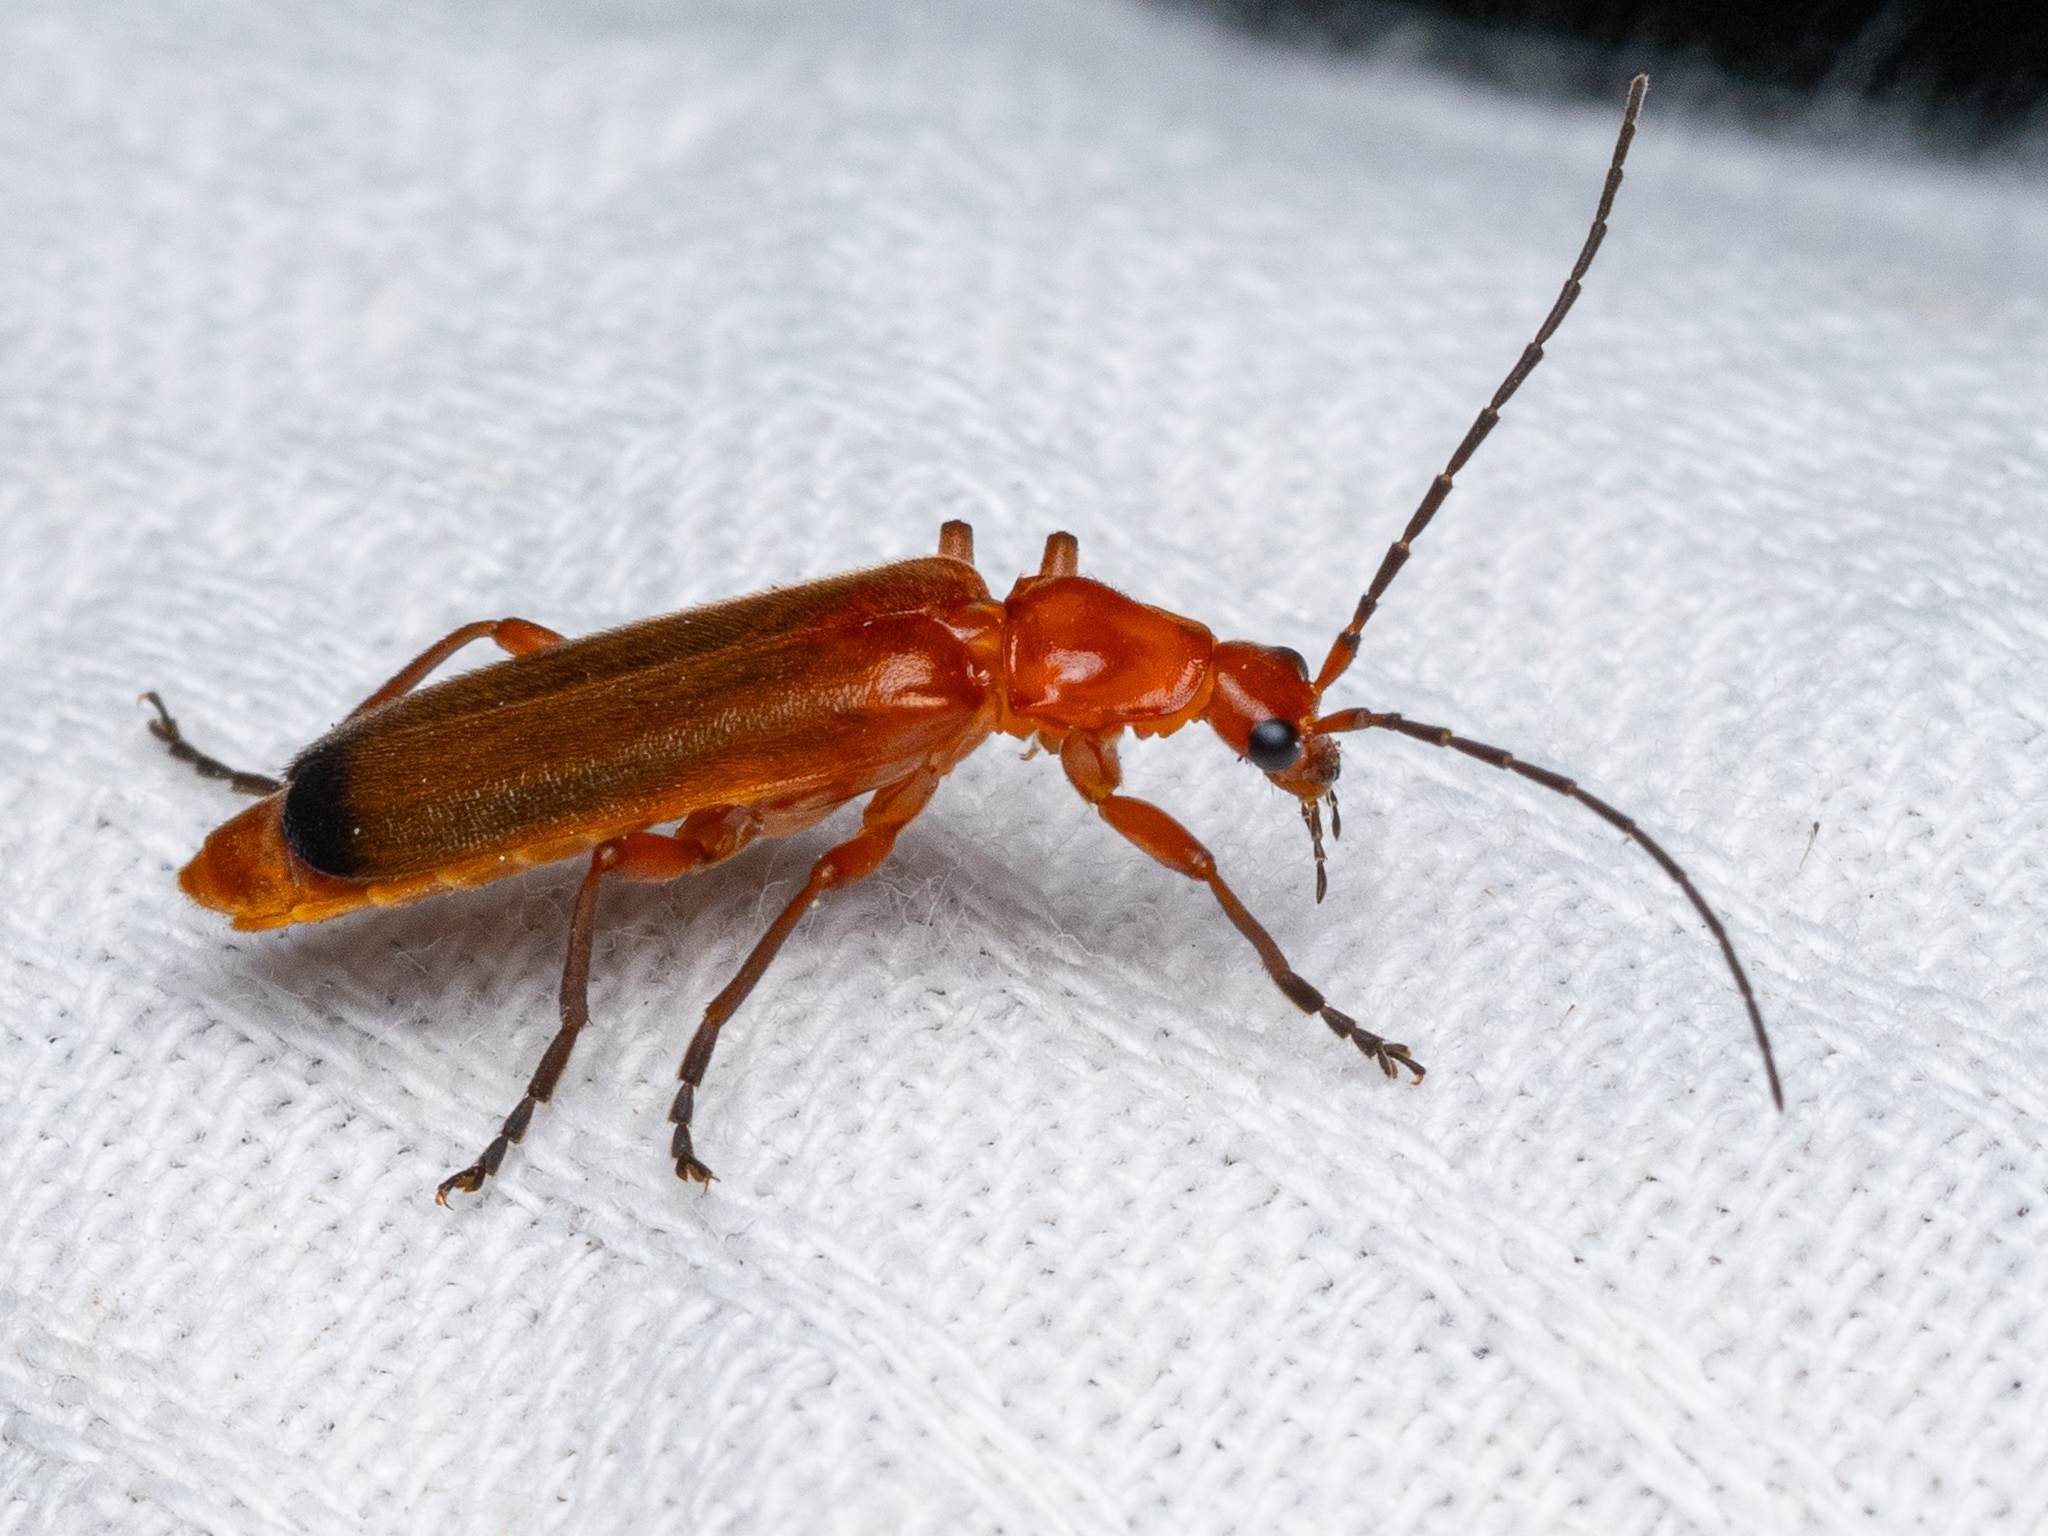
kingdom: Animalia
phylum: Arthropoda
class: Insecta
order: Coleoptera
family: Cantharidae
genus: Rhagonycha
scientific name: Rhagonycha fulva
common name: Common red soldier beetle
